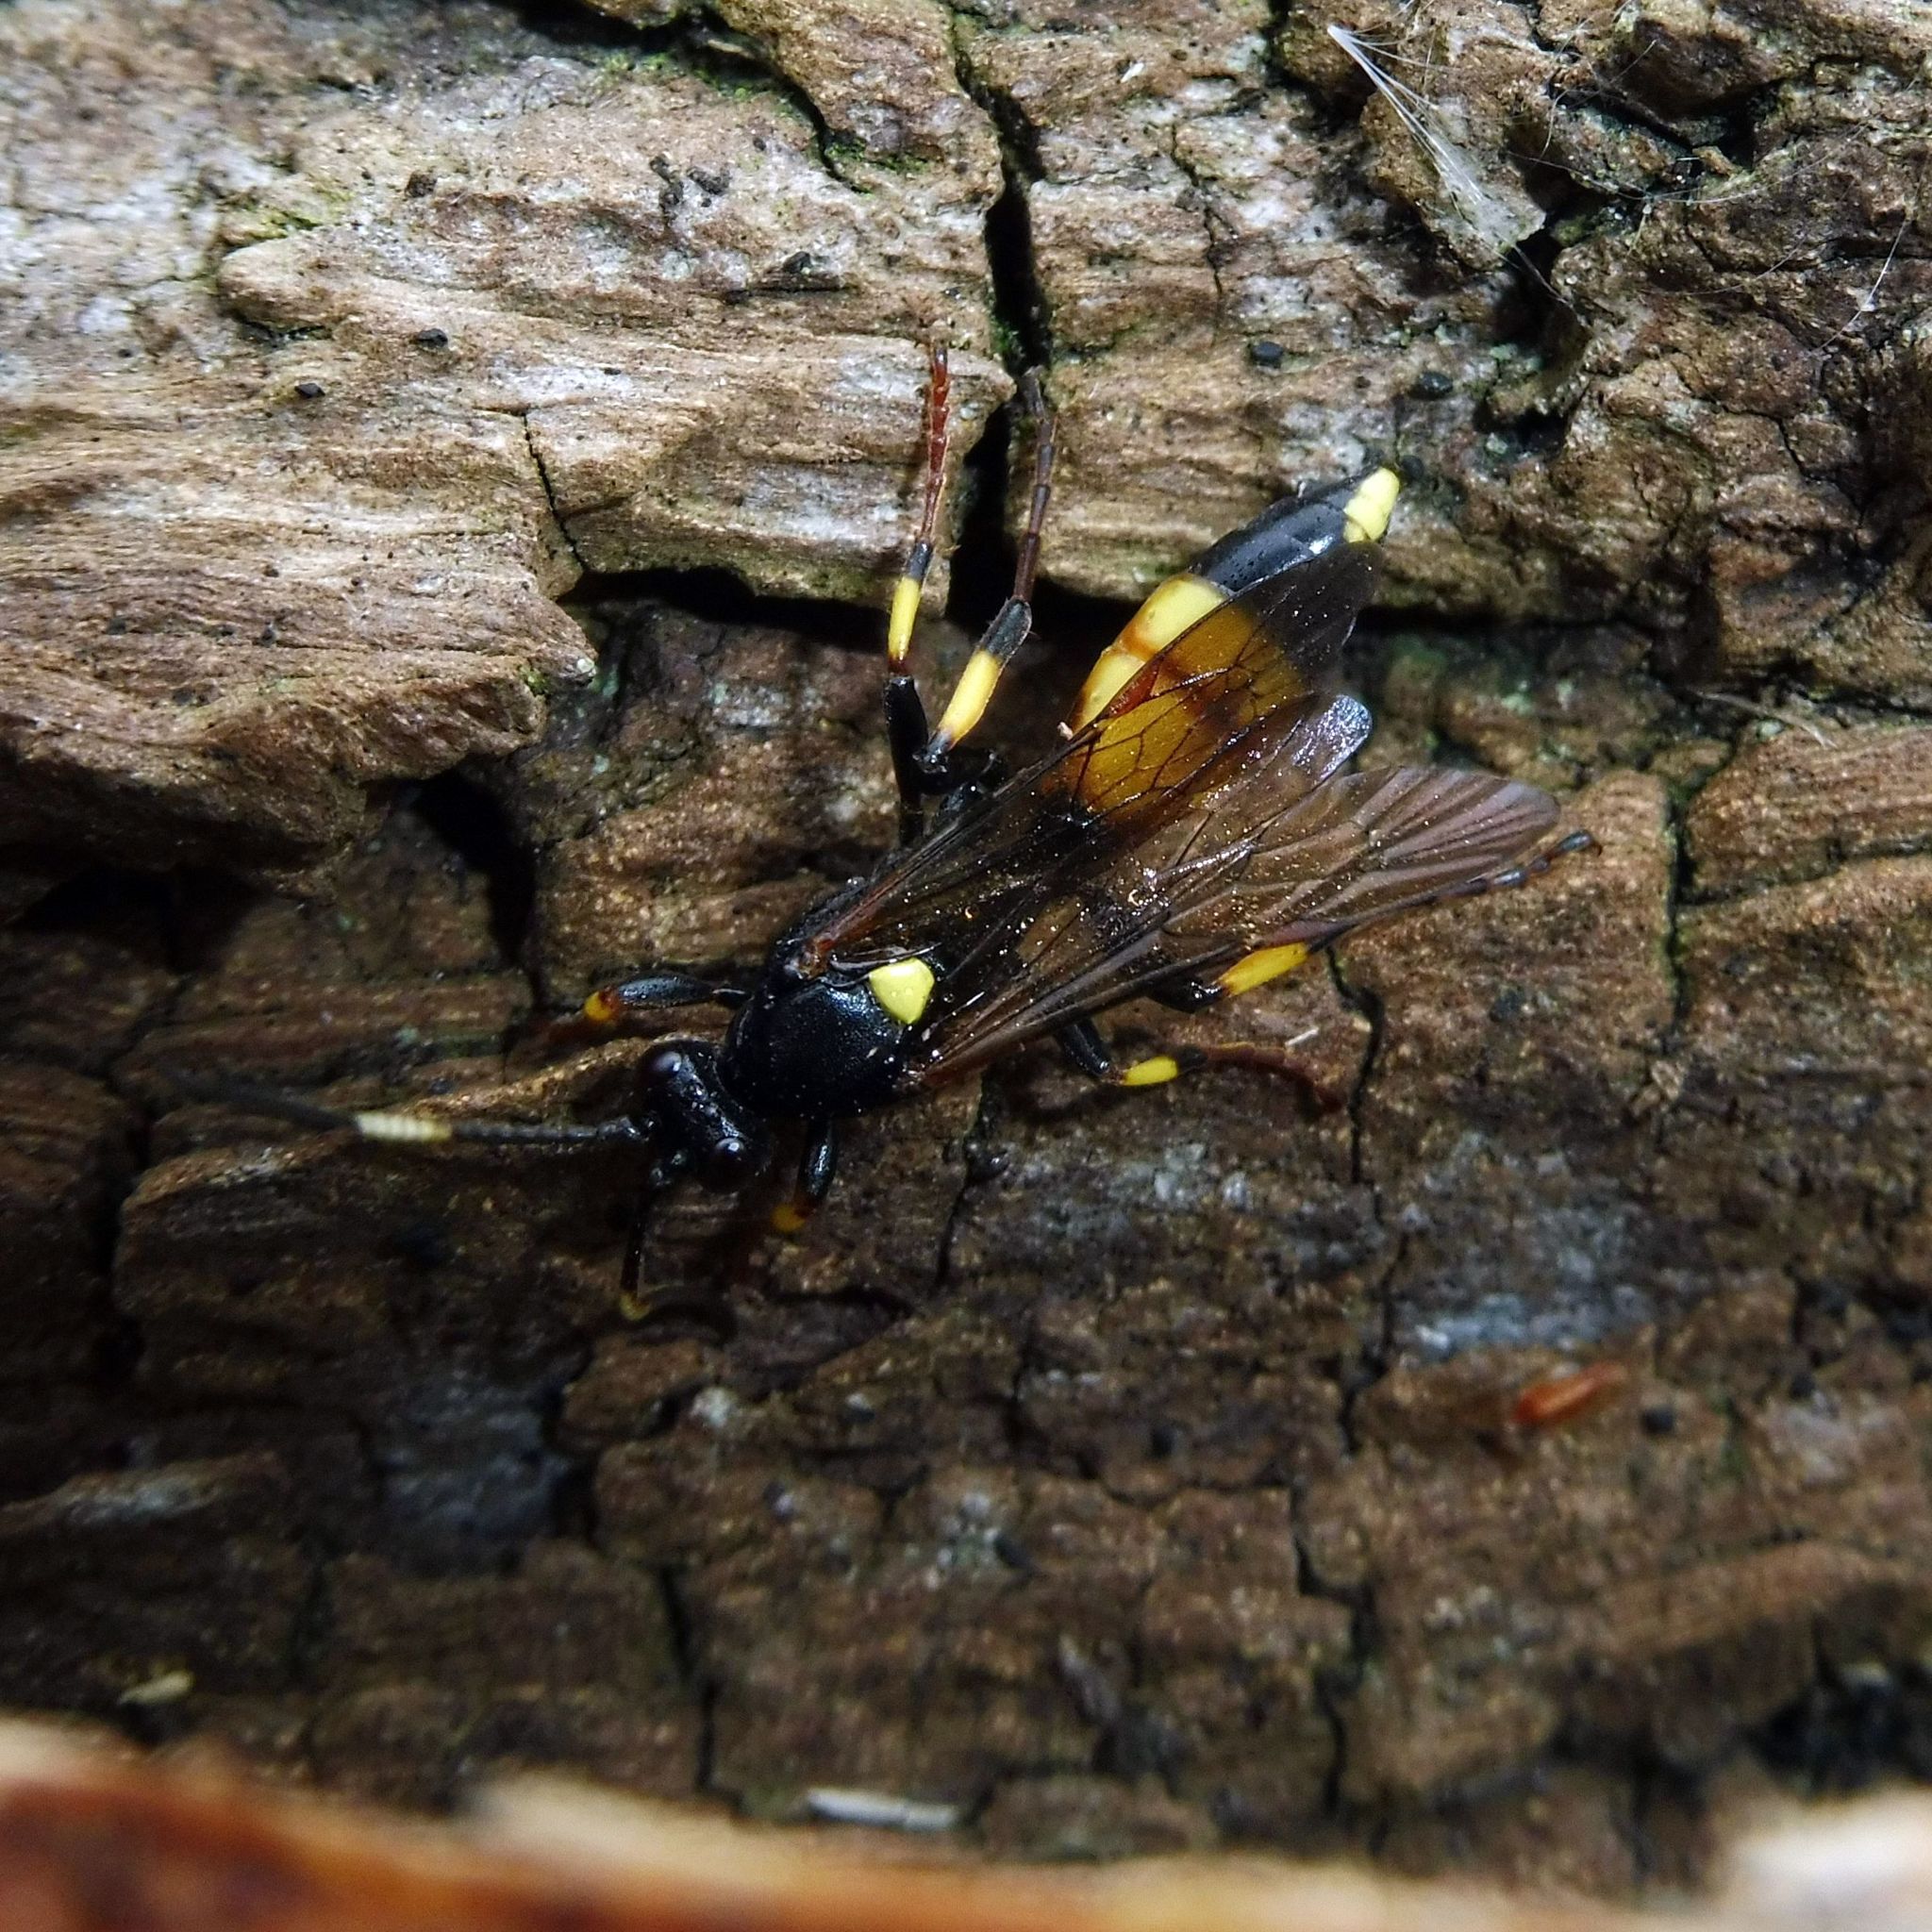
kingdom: Animalia
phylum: Arthropoda
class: Insecta
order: Hymenoptera
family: Ichneumonidae
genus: Ichneumon
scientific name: Ichneumon stramentor
